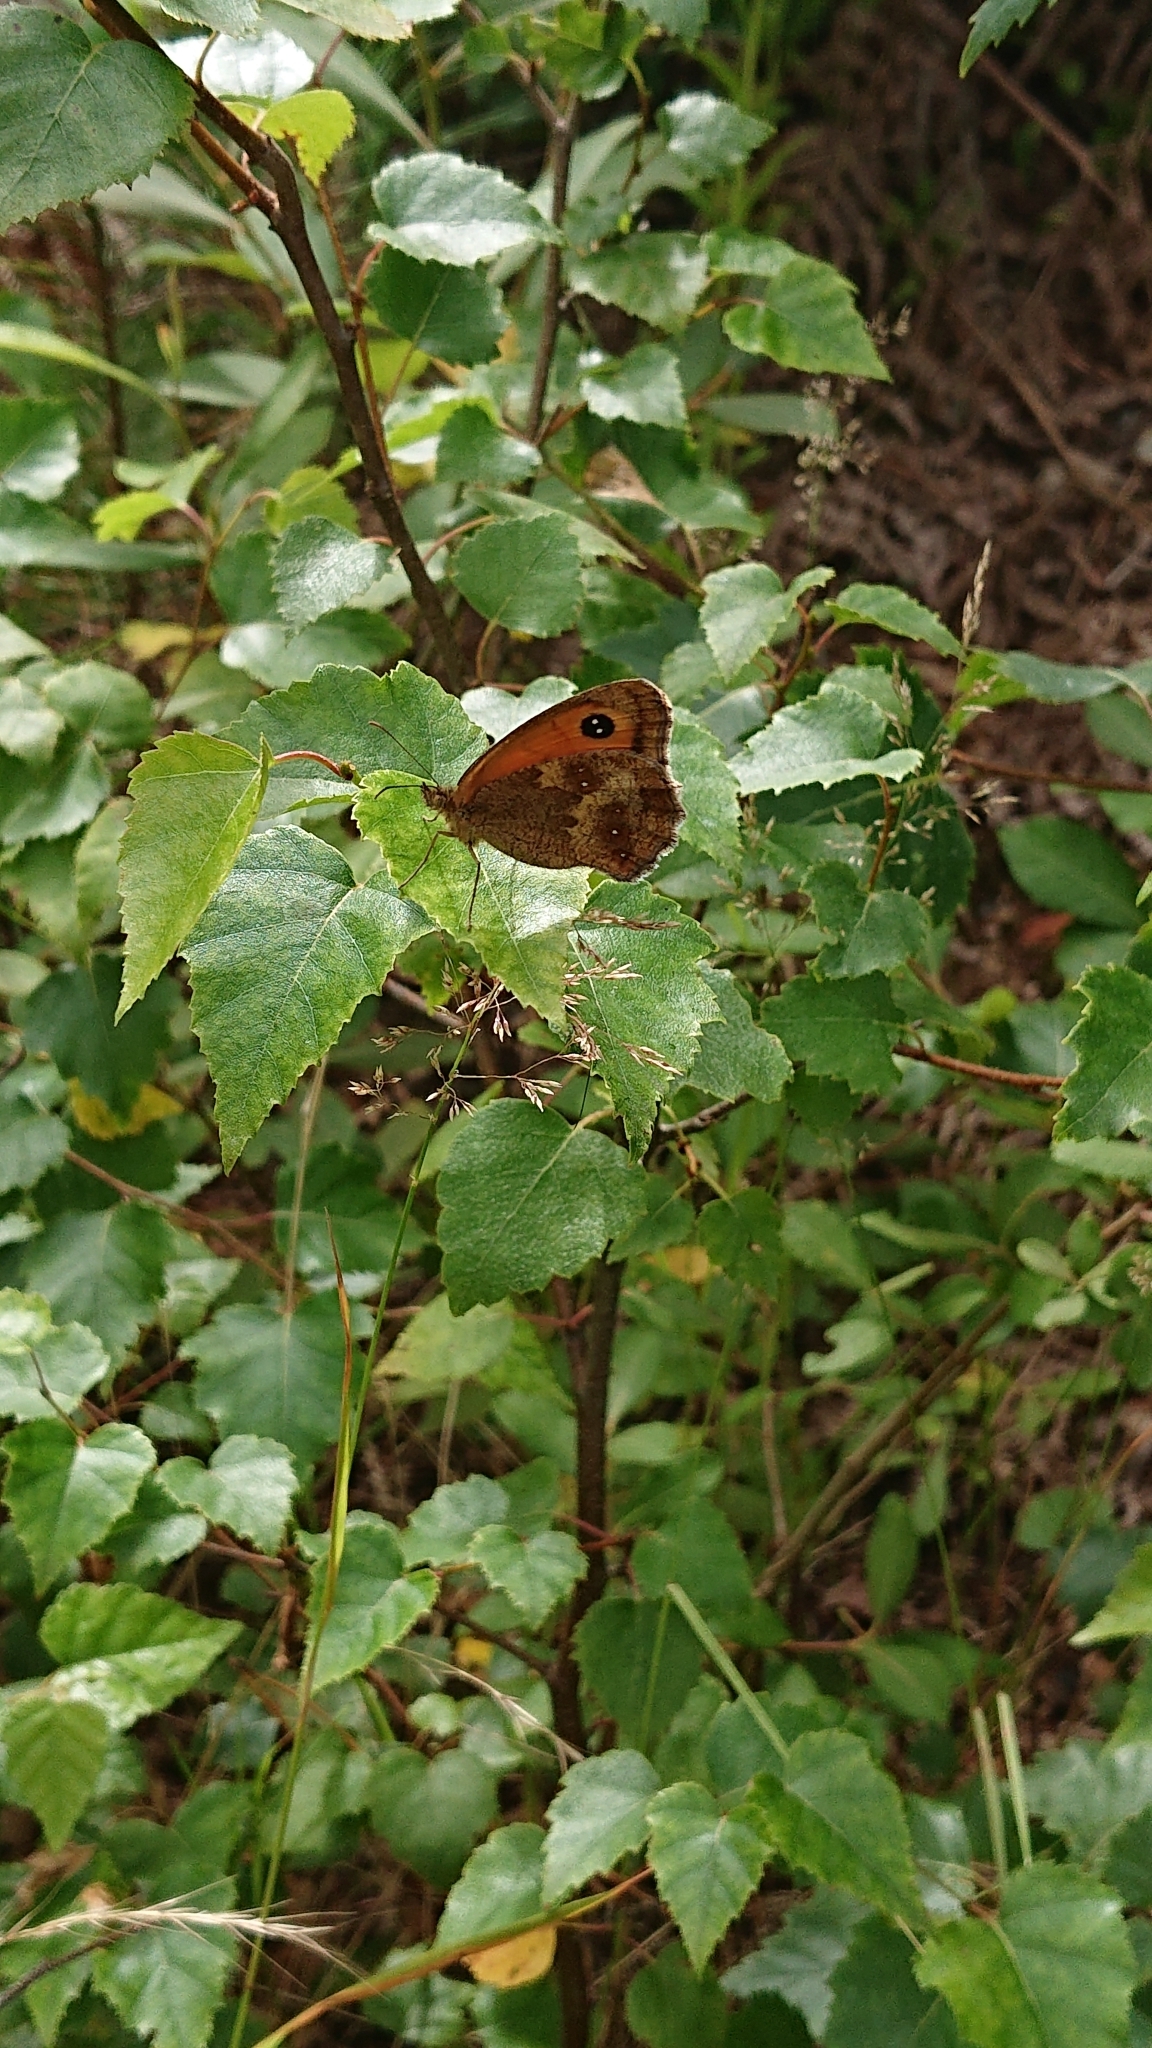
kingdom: Animalia
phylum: Arthropoda
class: Insecta
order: Lepidoptera
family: Nymphalidae
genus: Pyronia
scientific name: Pyronia tithonus
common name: Gatekeeper
